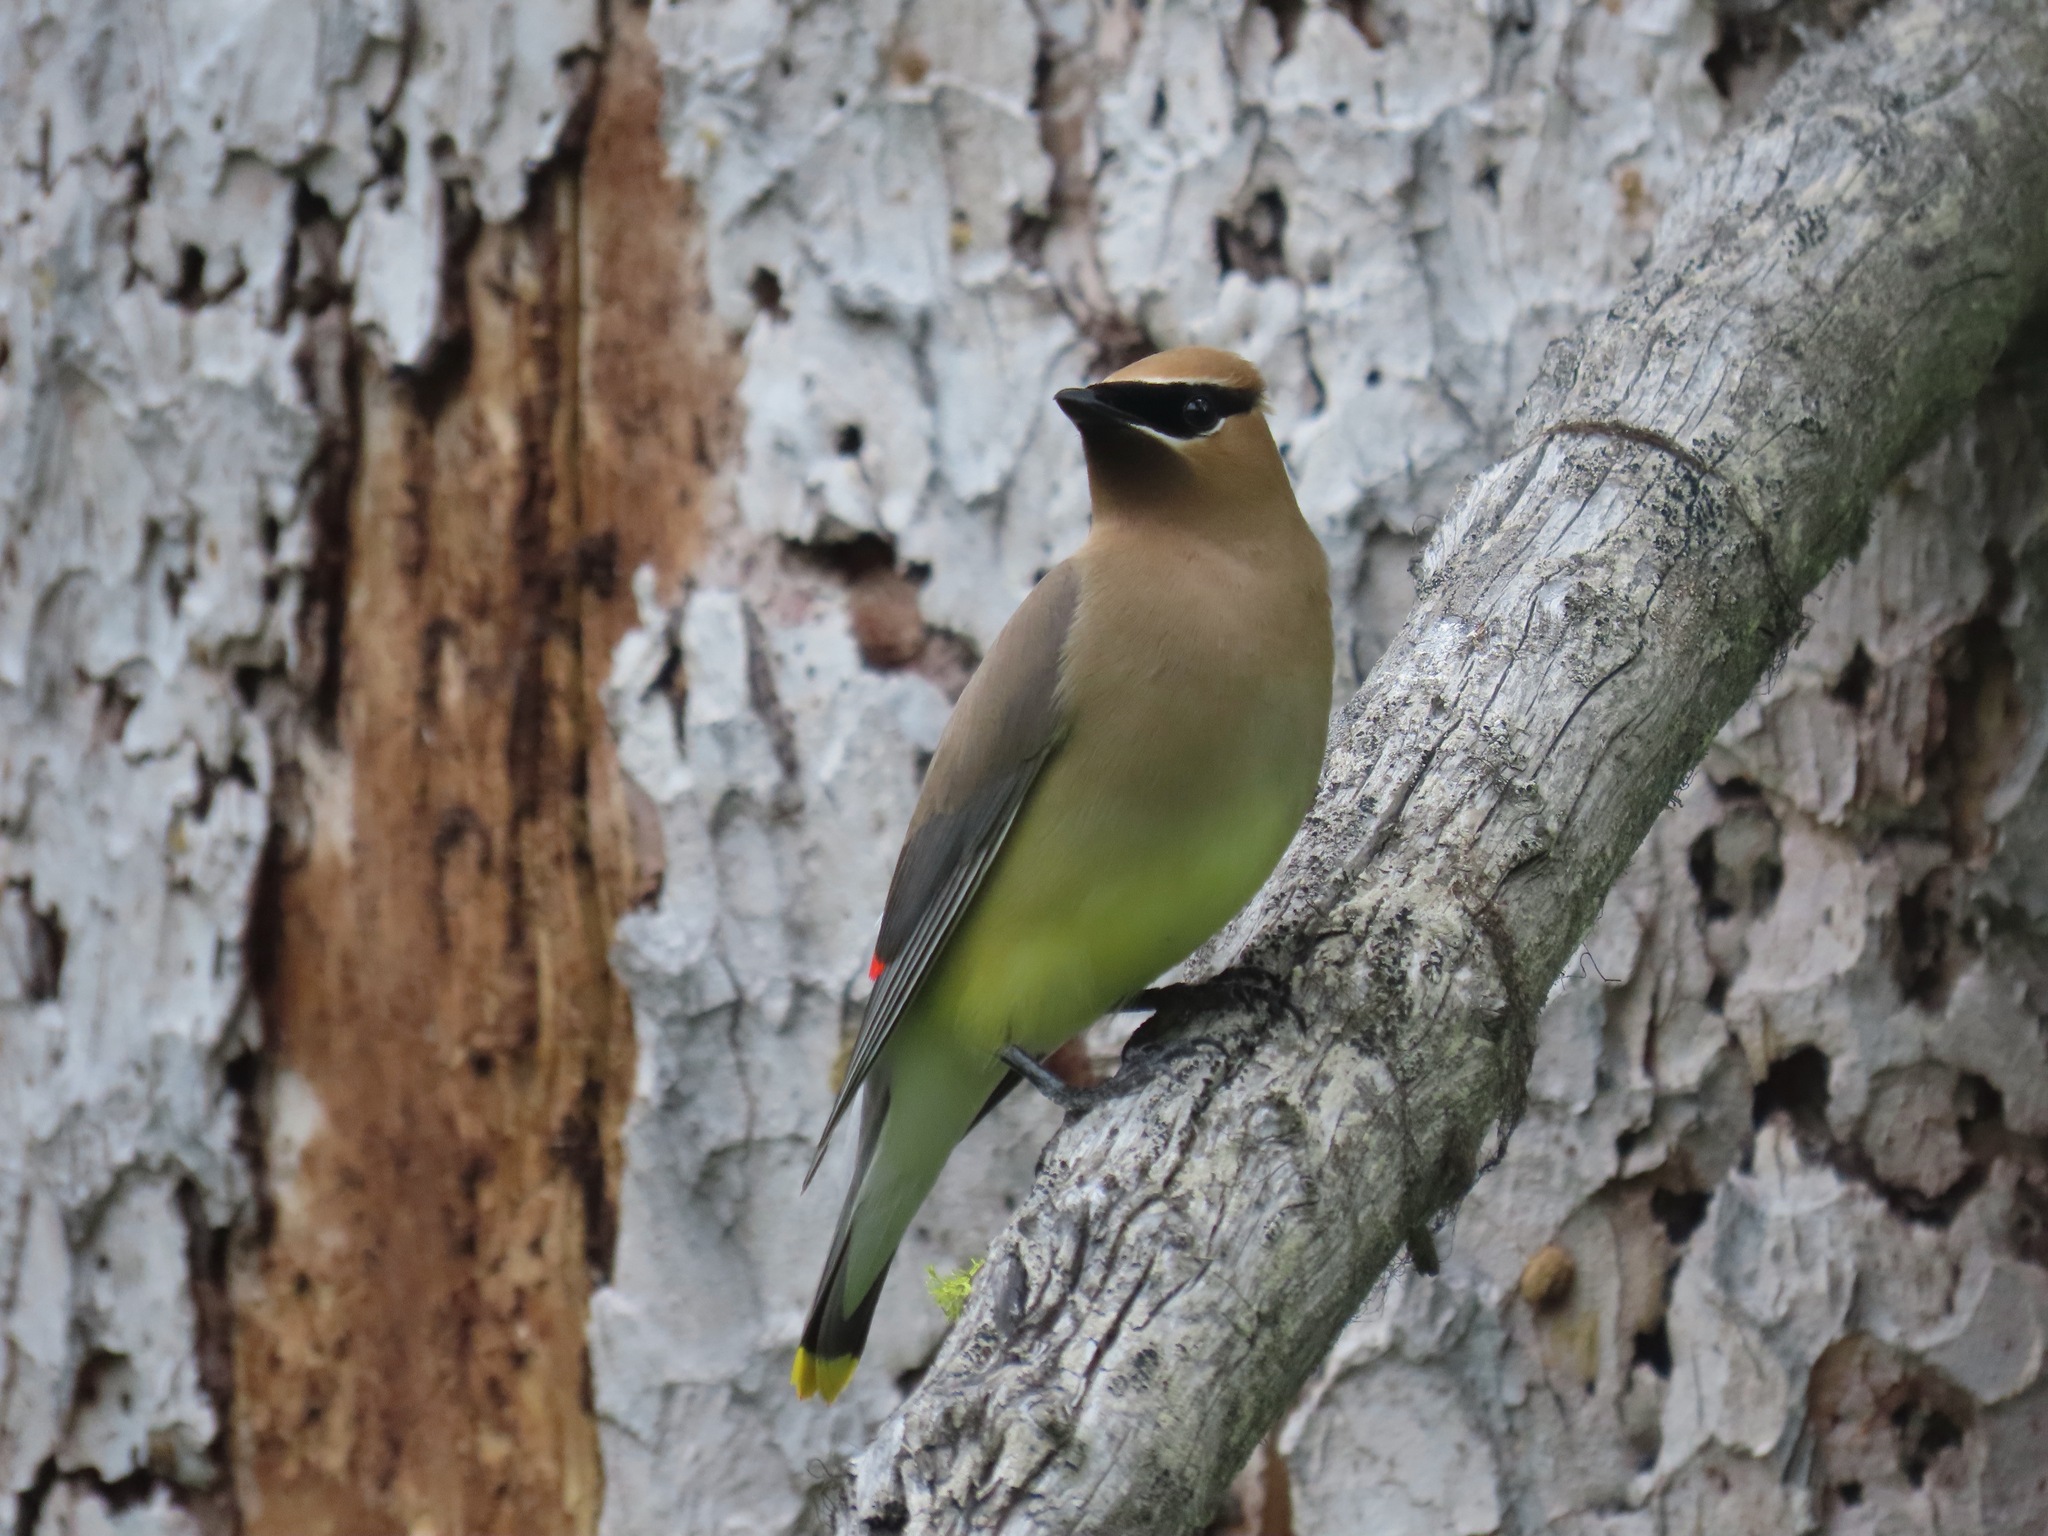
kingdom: Animalia
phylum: Chordata
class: Aves
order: Passeriformes
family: Bombycillidae
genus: Bombycilla
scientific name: Bombycilla cedrorum
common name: Cedar waxwing
